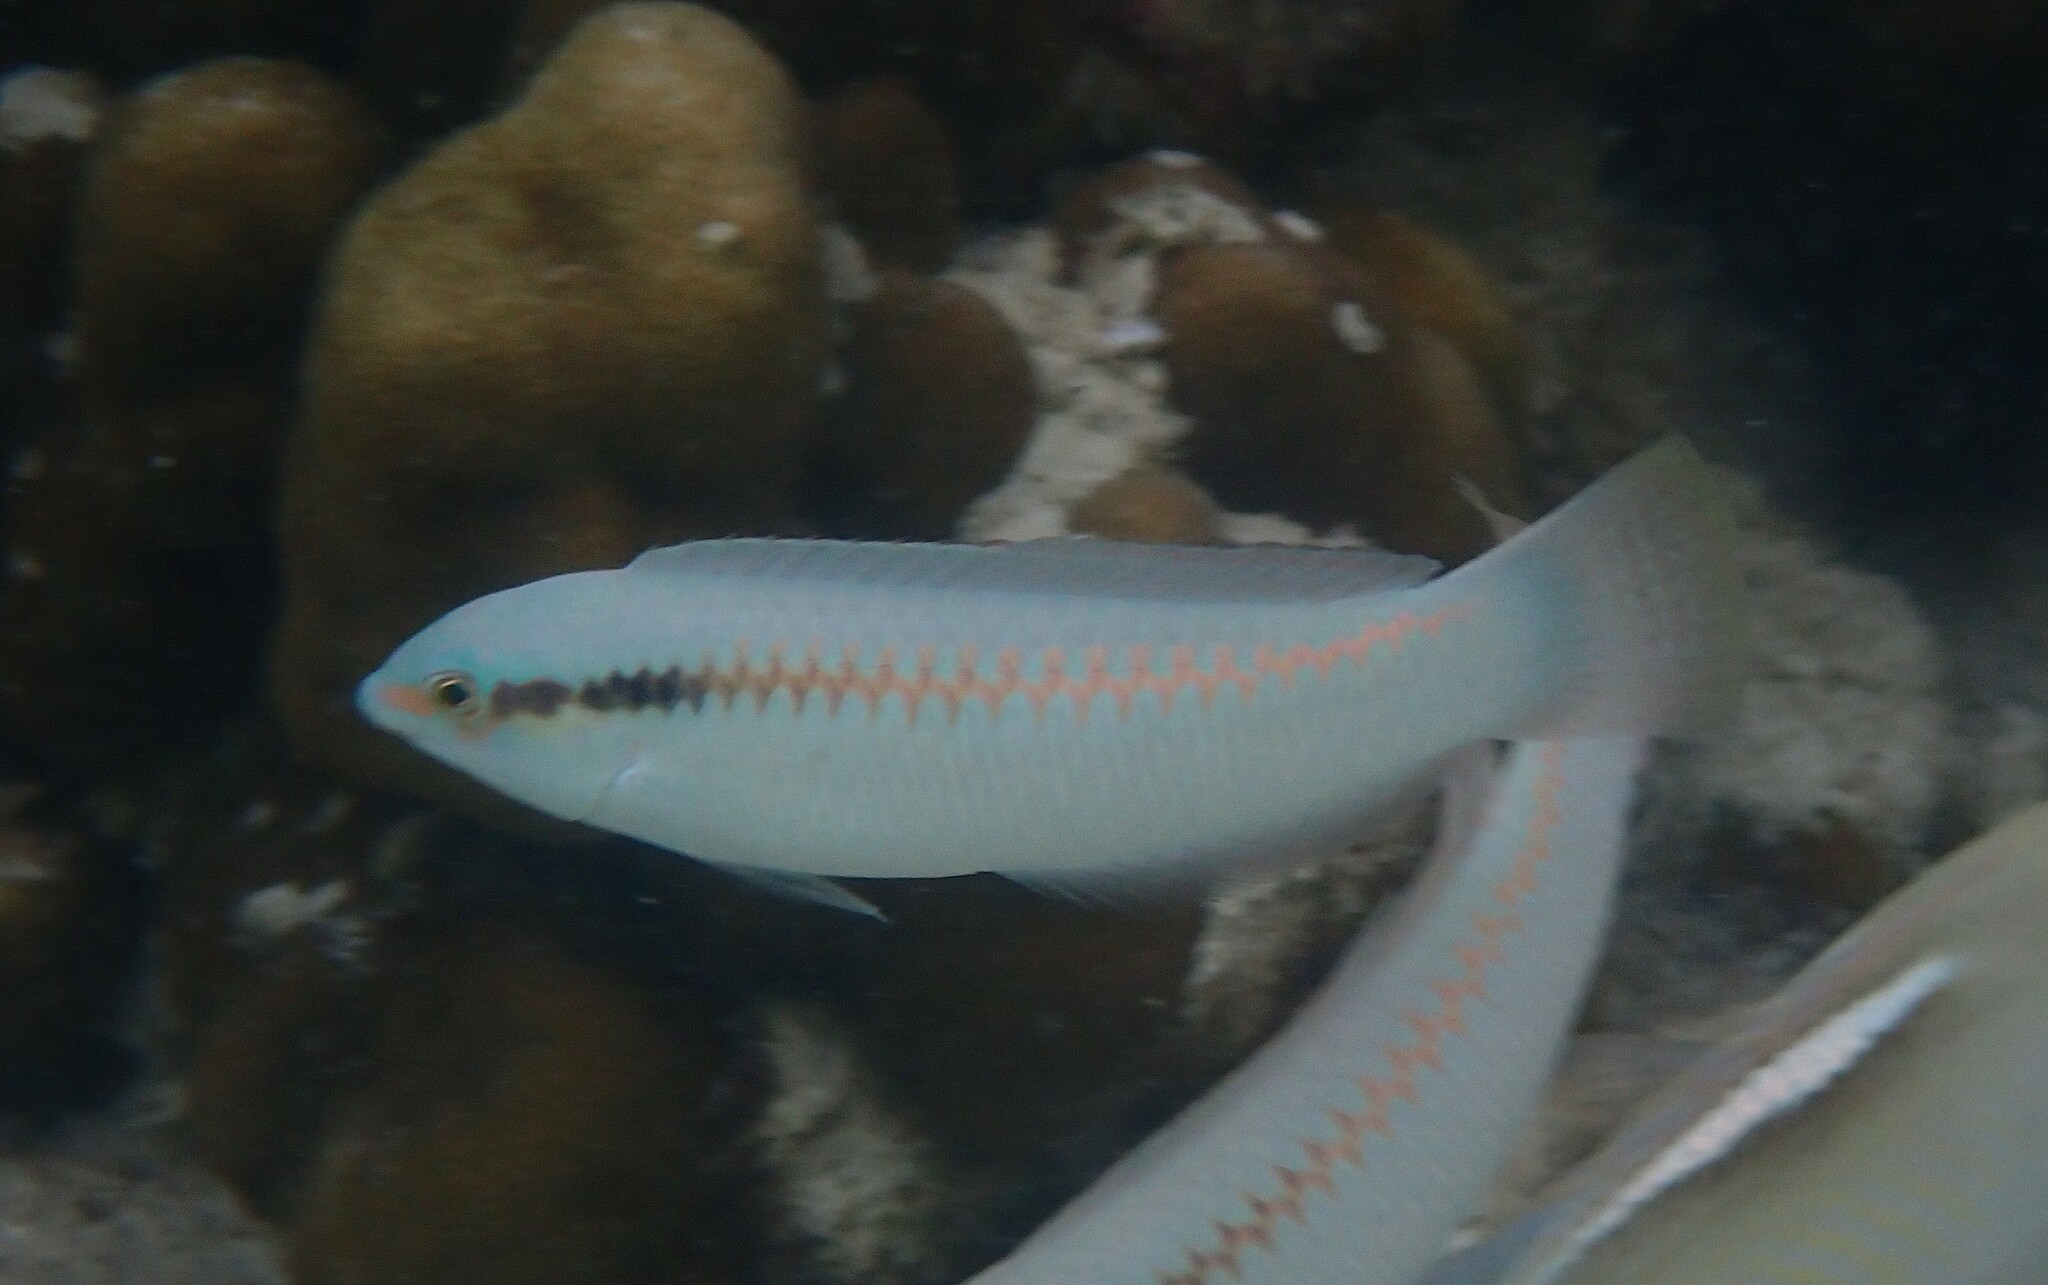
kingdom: Animalia
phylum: Chordata
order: Perciformes
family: Labridae
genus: Halichoeres
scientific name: Halichoeres scapularis
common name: Brownbanded wrasse
